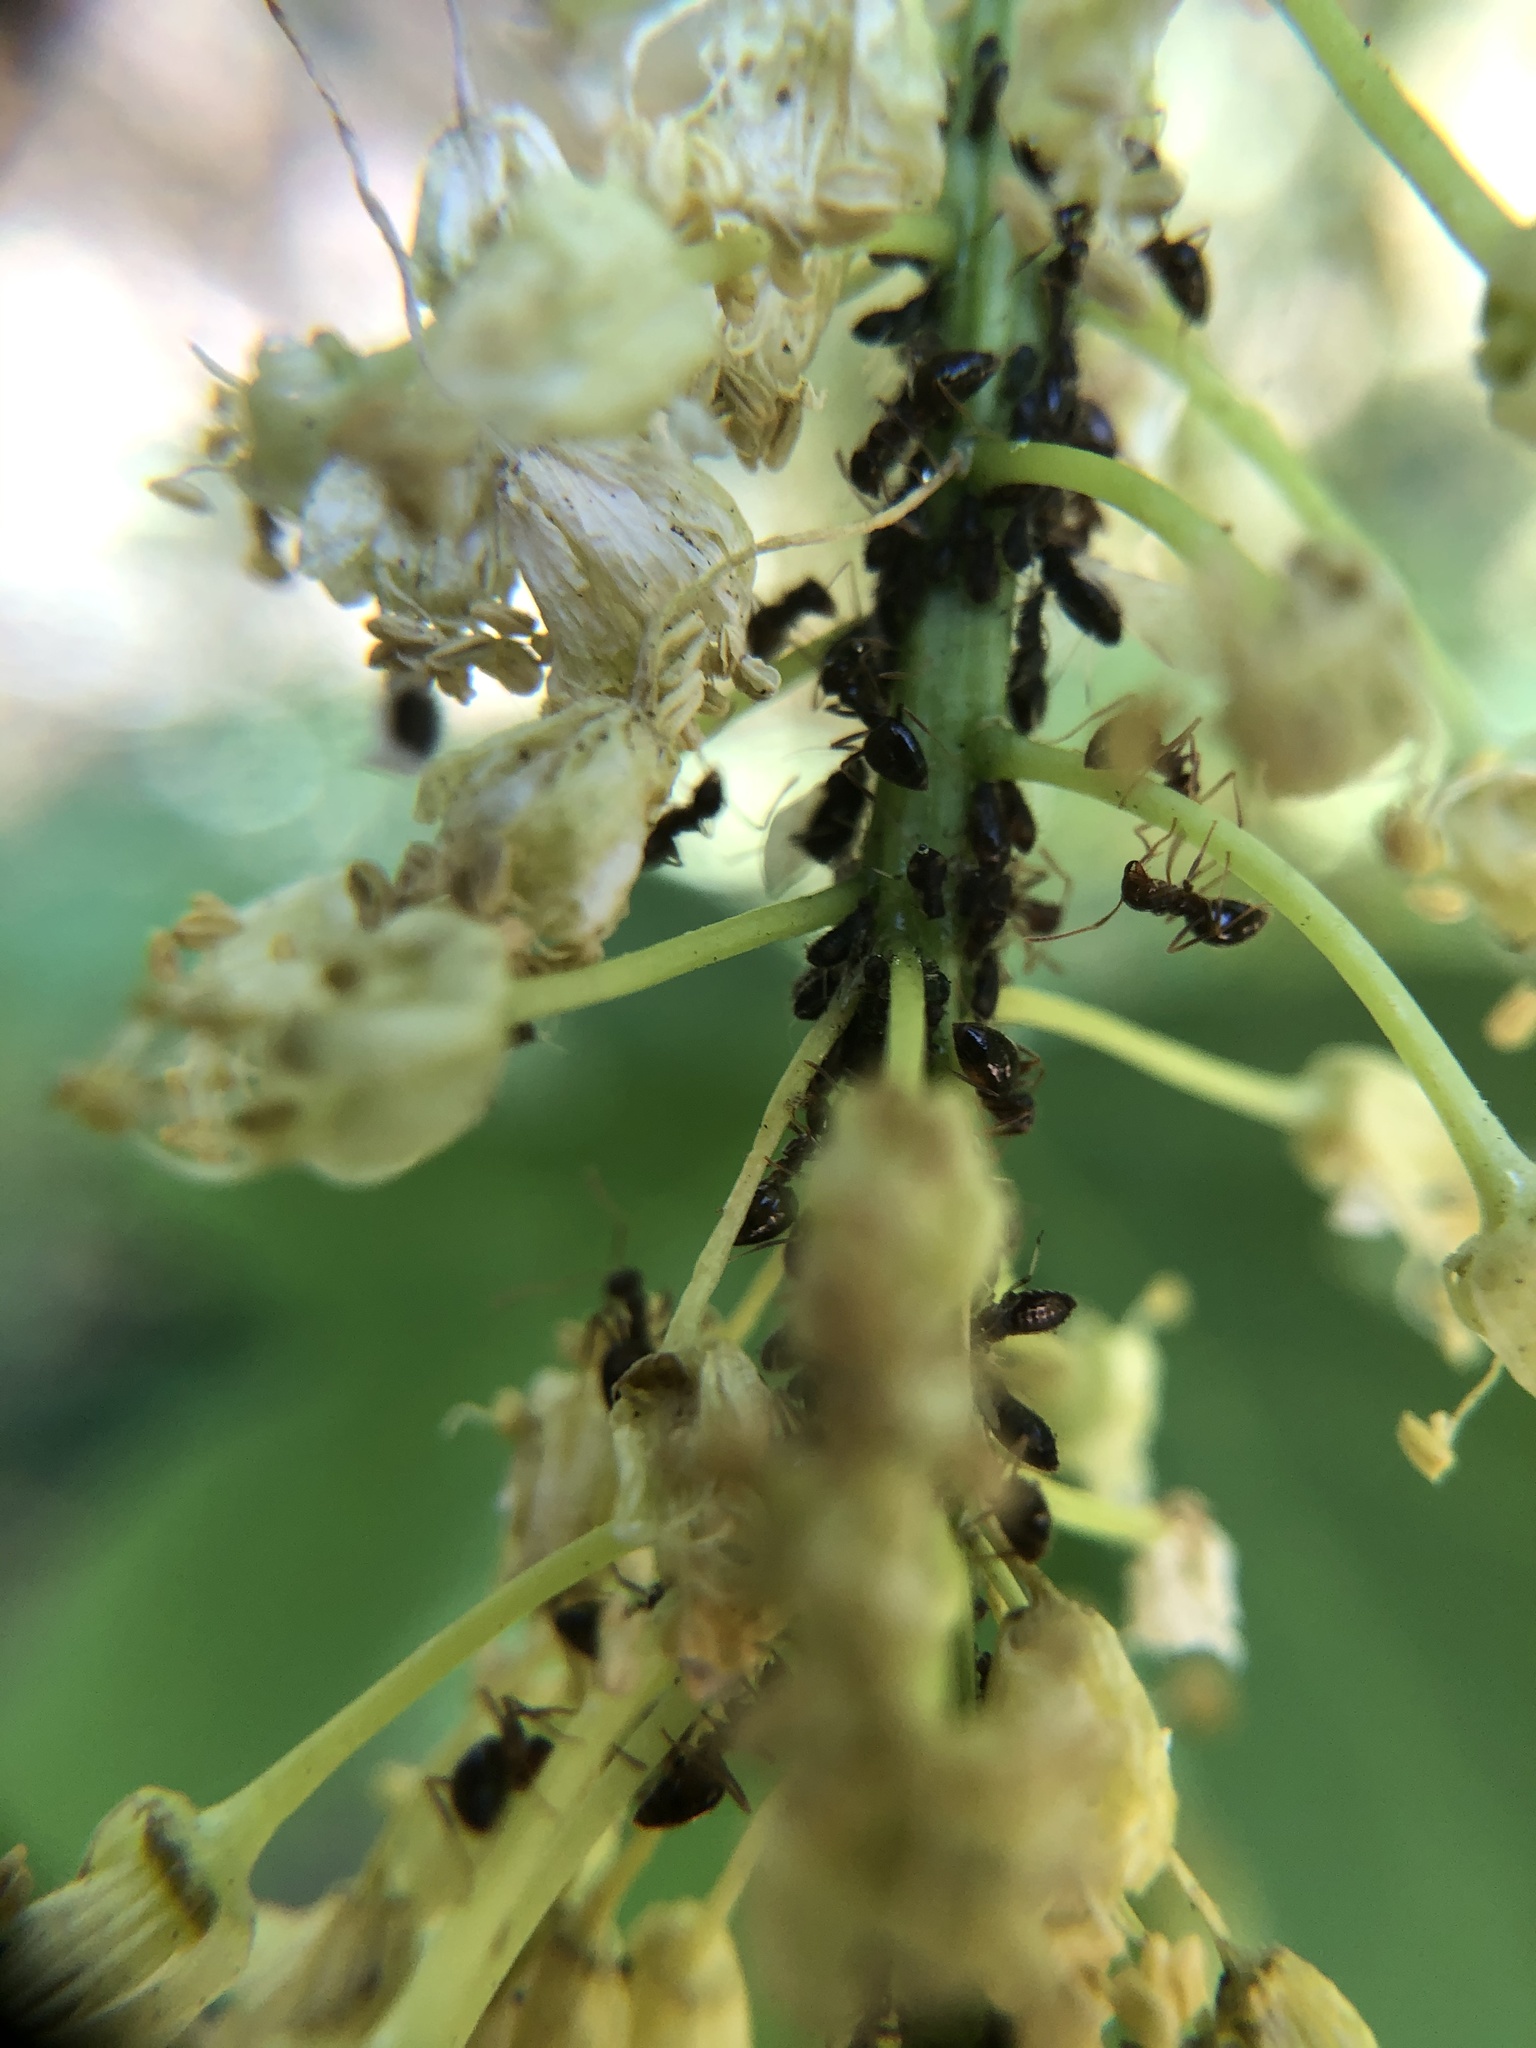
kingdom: Animalia
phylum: Arthropoda
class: Insecta
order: Hymenoptera
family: Formicidae
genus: Prenolepis
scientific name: Prenolepis imparis
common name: Small honey ant
